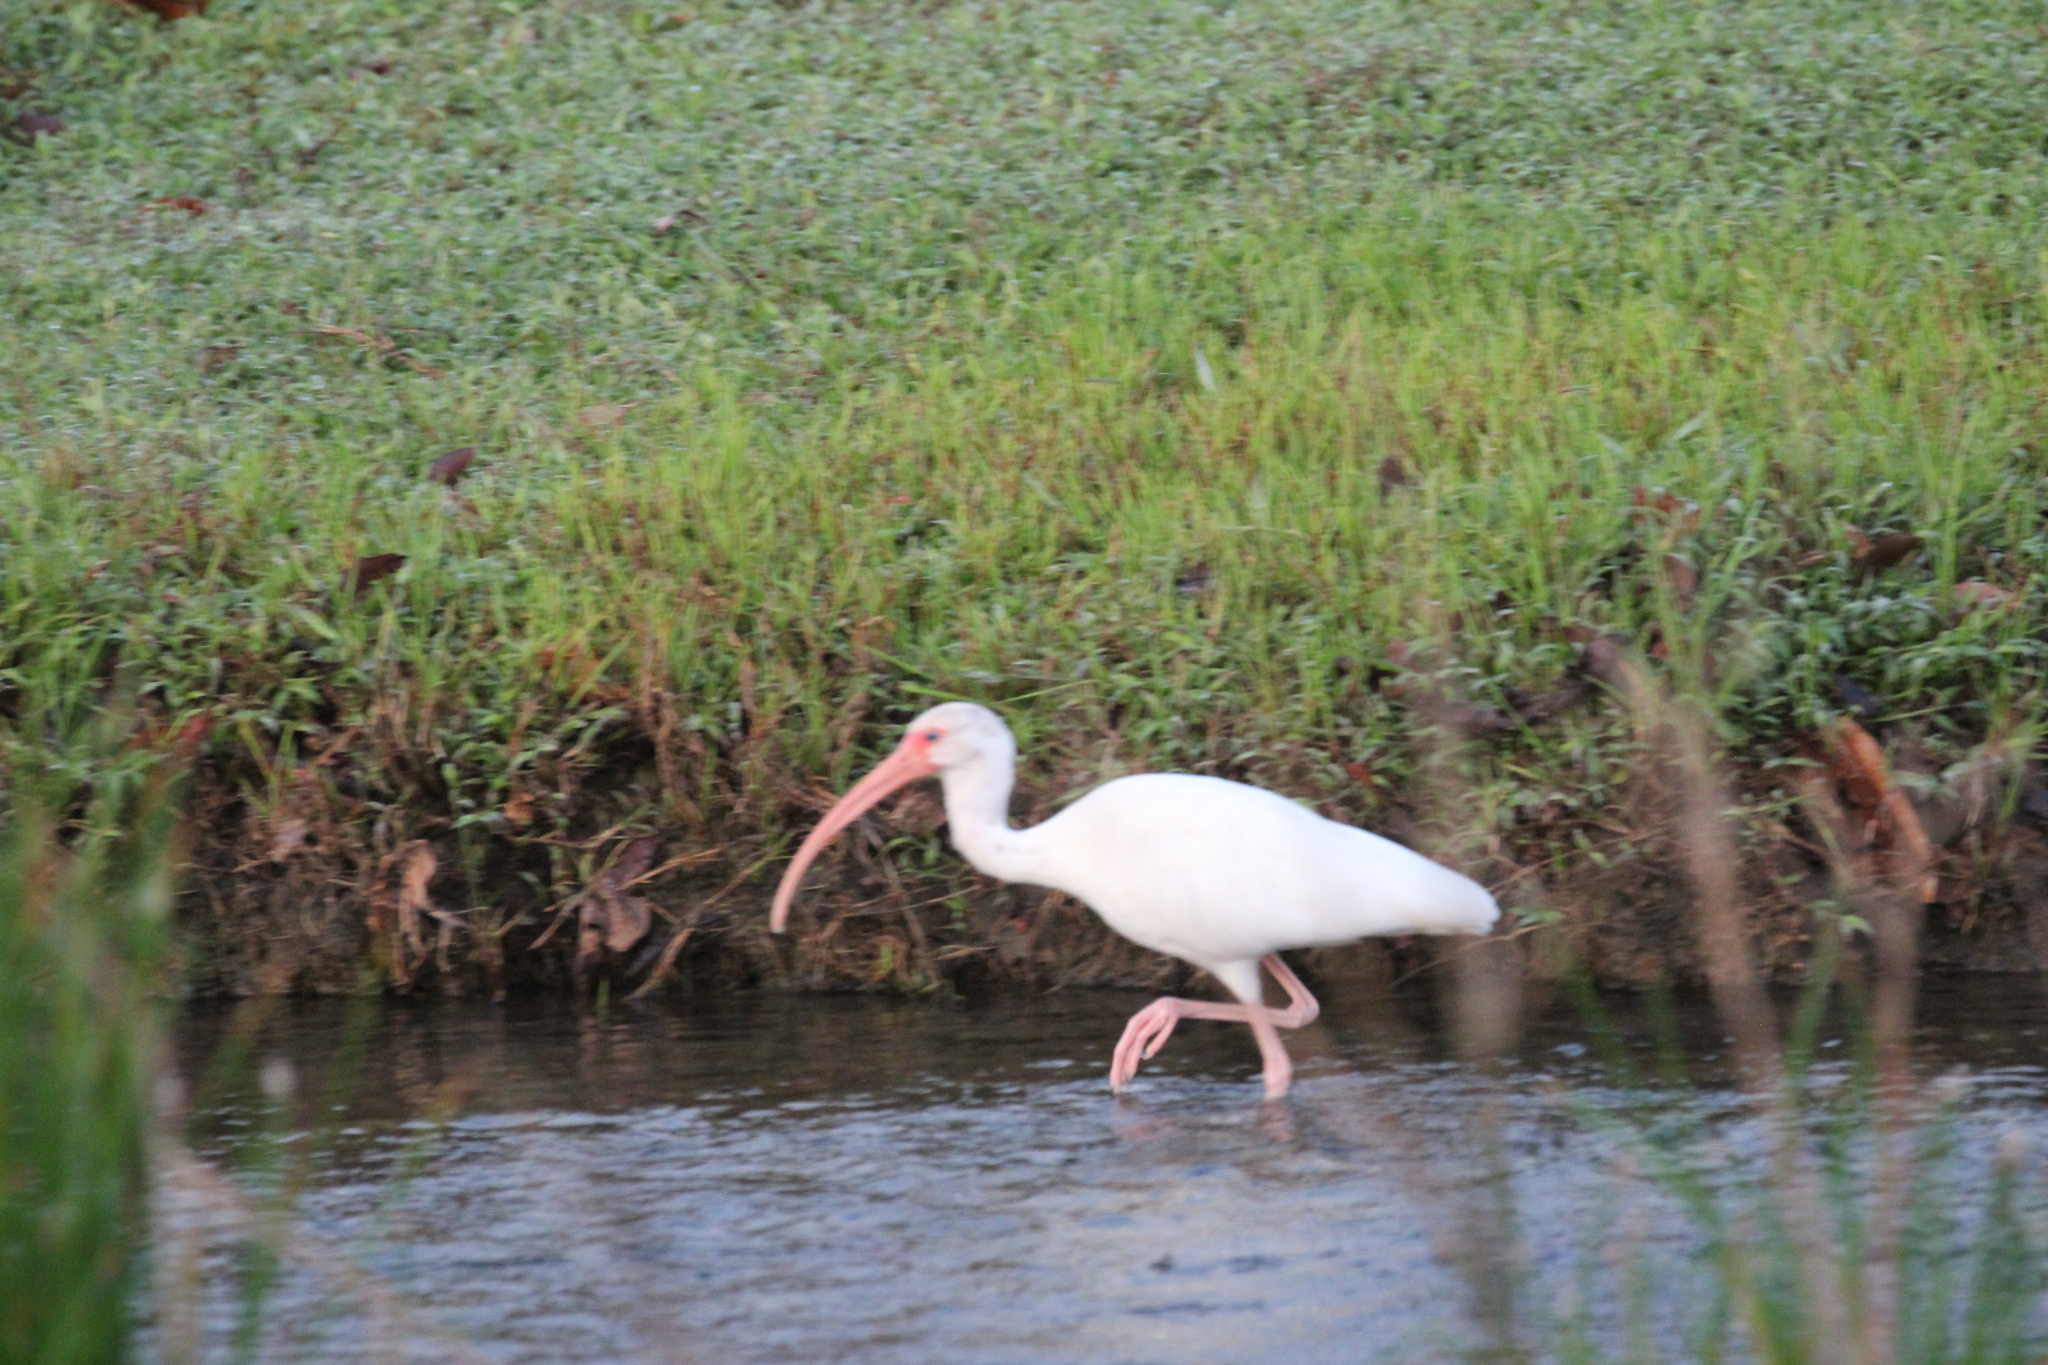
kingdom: Animalia
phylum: Chordata
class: Aves
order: Pelecaniformes
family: Threskiornithidae
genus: Eudocimus
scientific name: Eudocimus albus
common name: White ibis
